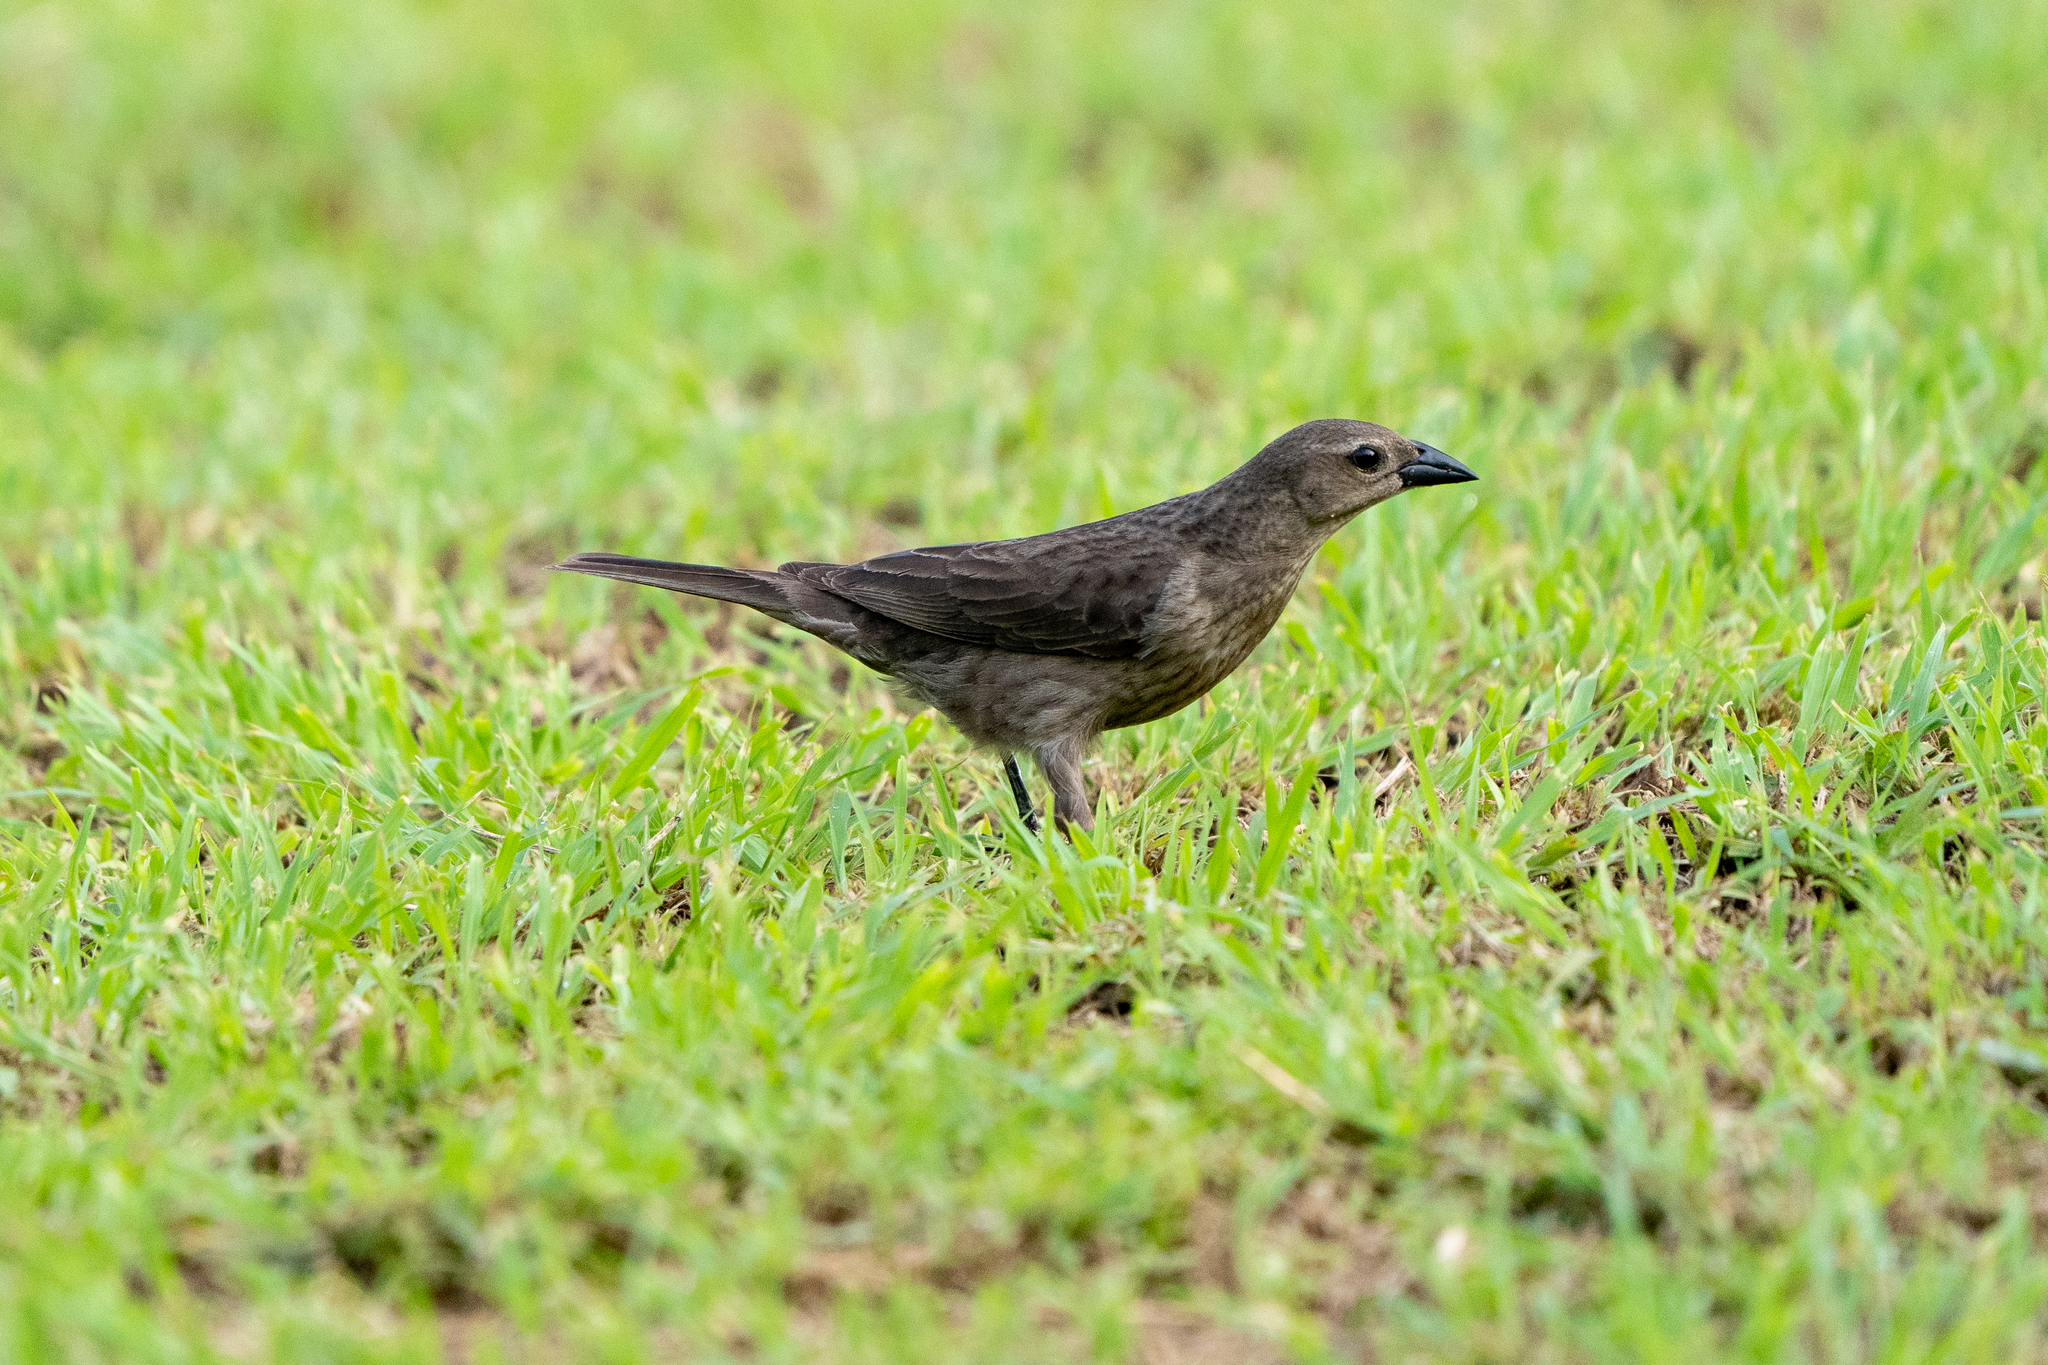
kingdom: Animalia
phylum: Chordata
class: Aves
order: Passeriformes
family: Icteridae
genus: Molothrus
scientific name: Molothrus bonariensis
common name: Shiny cowbird
